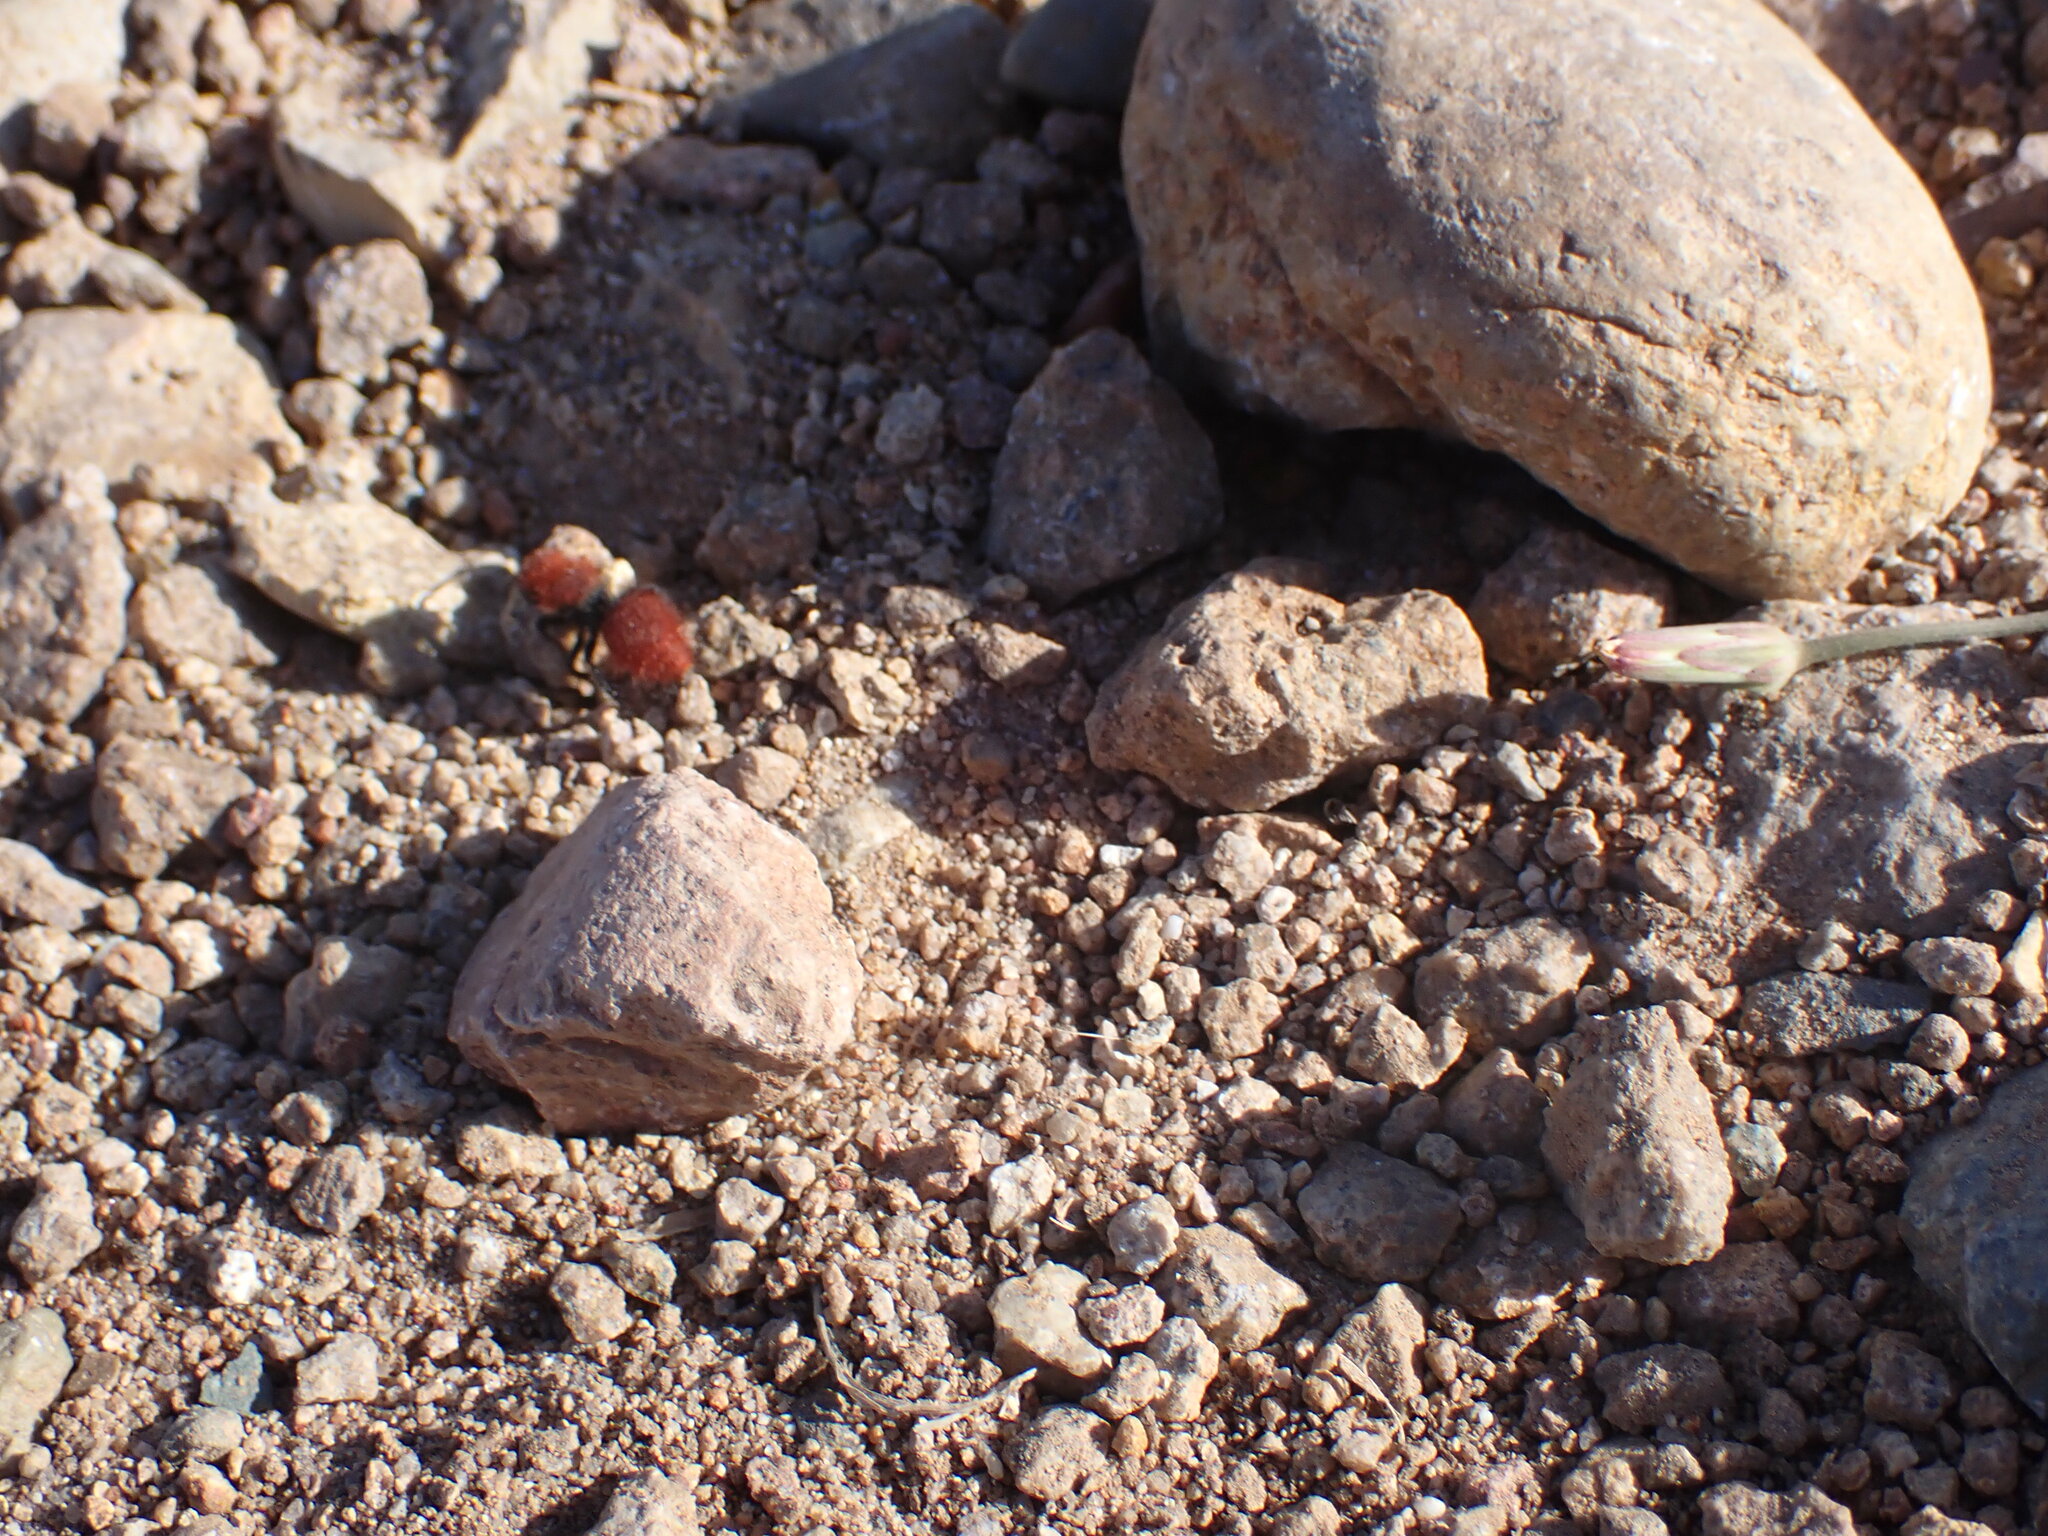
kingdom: Animalia
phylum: Arthropoda
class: Insecta
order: Hymenoptera
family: Mutillidae
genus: Dasymutilla
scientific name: Dasymutilla
